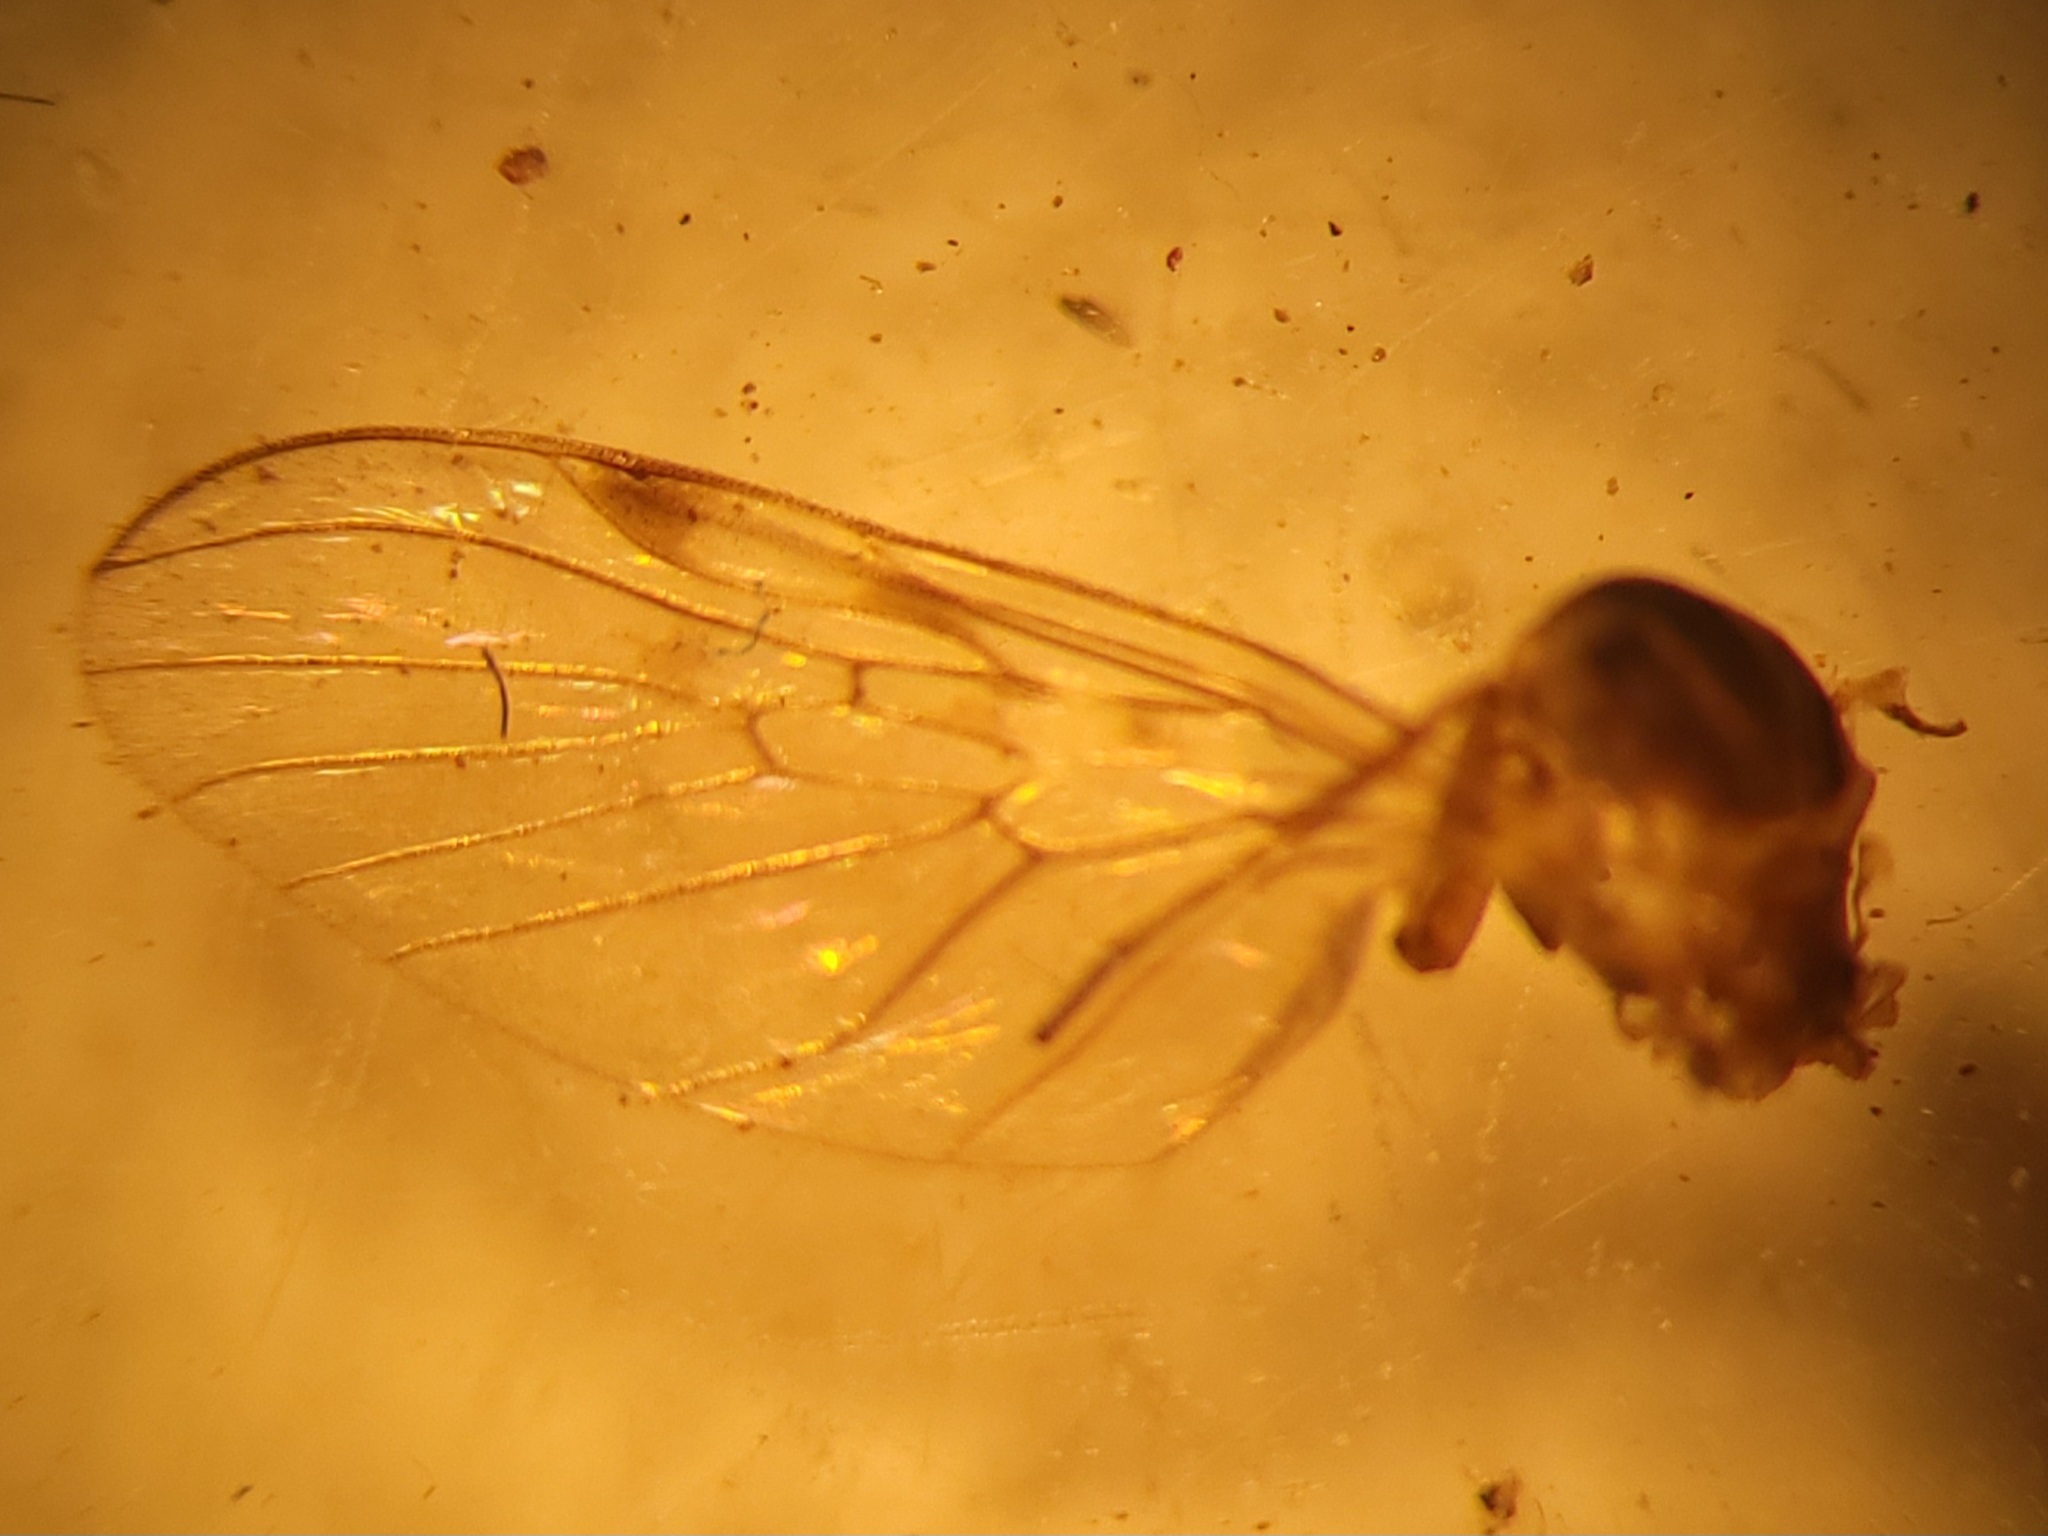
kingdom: Animalia
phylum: Arthropoda
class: Insecta
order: Diptera
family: Anisopodidae
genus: Sylvicola
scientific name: Sylvicola punctatus
